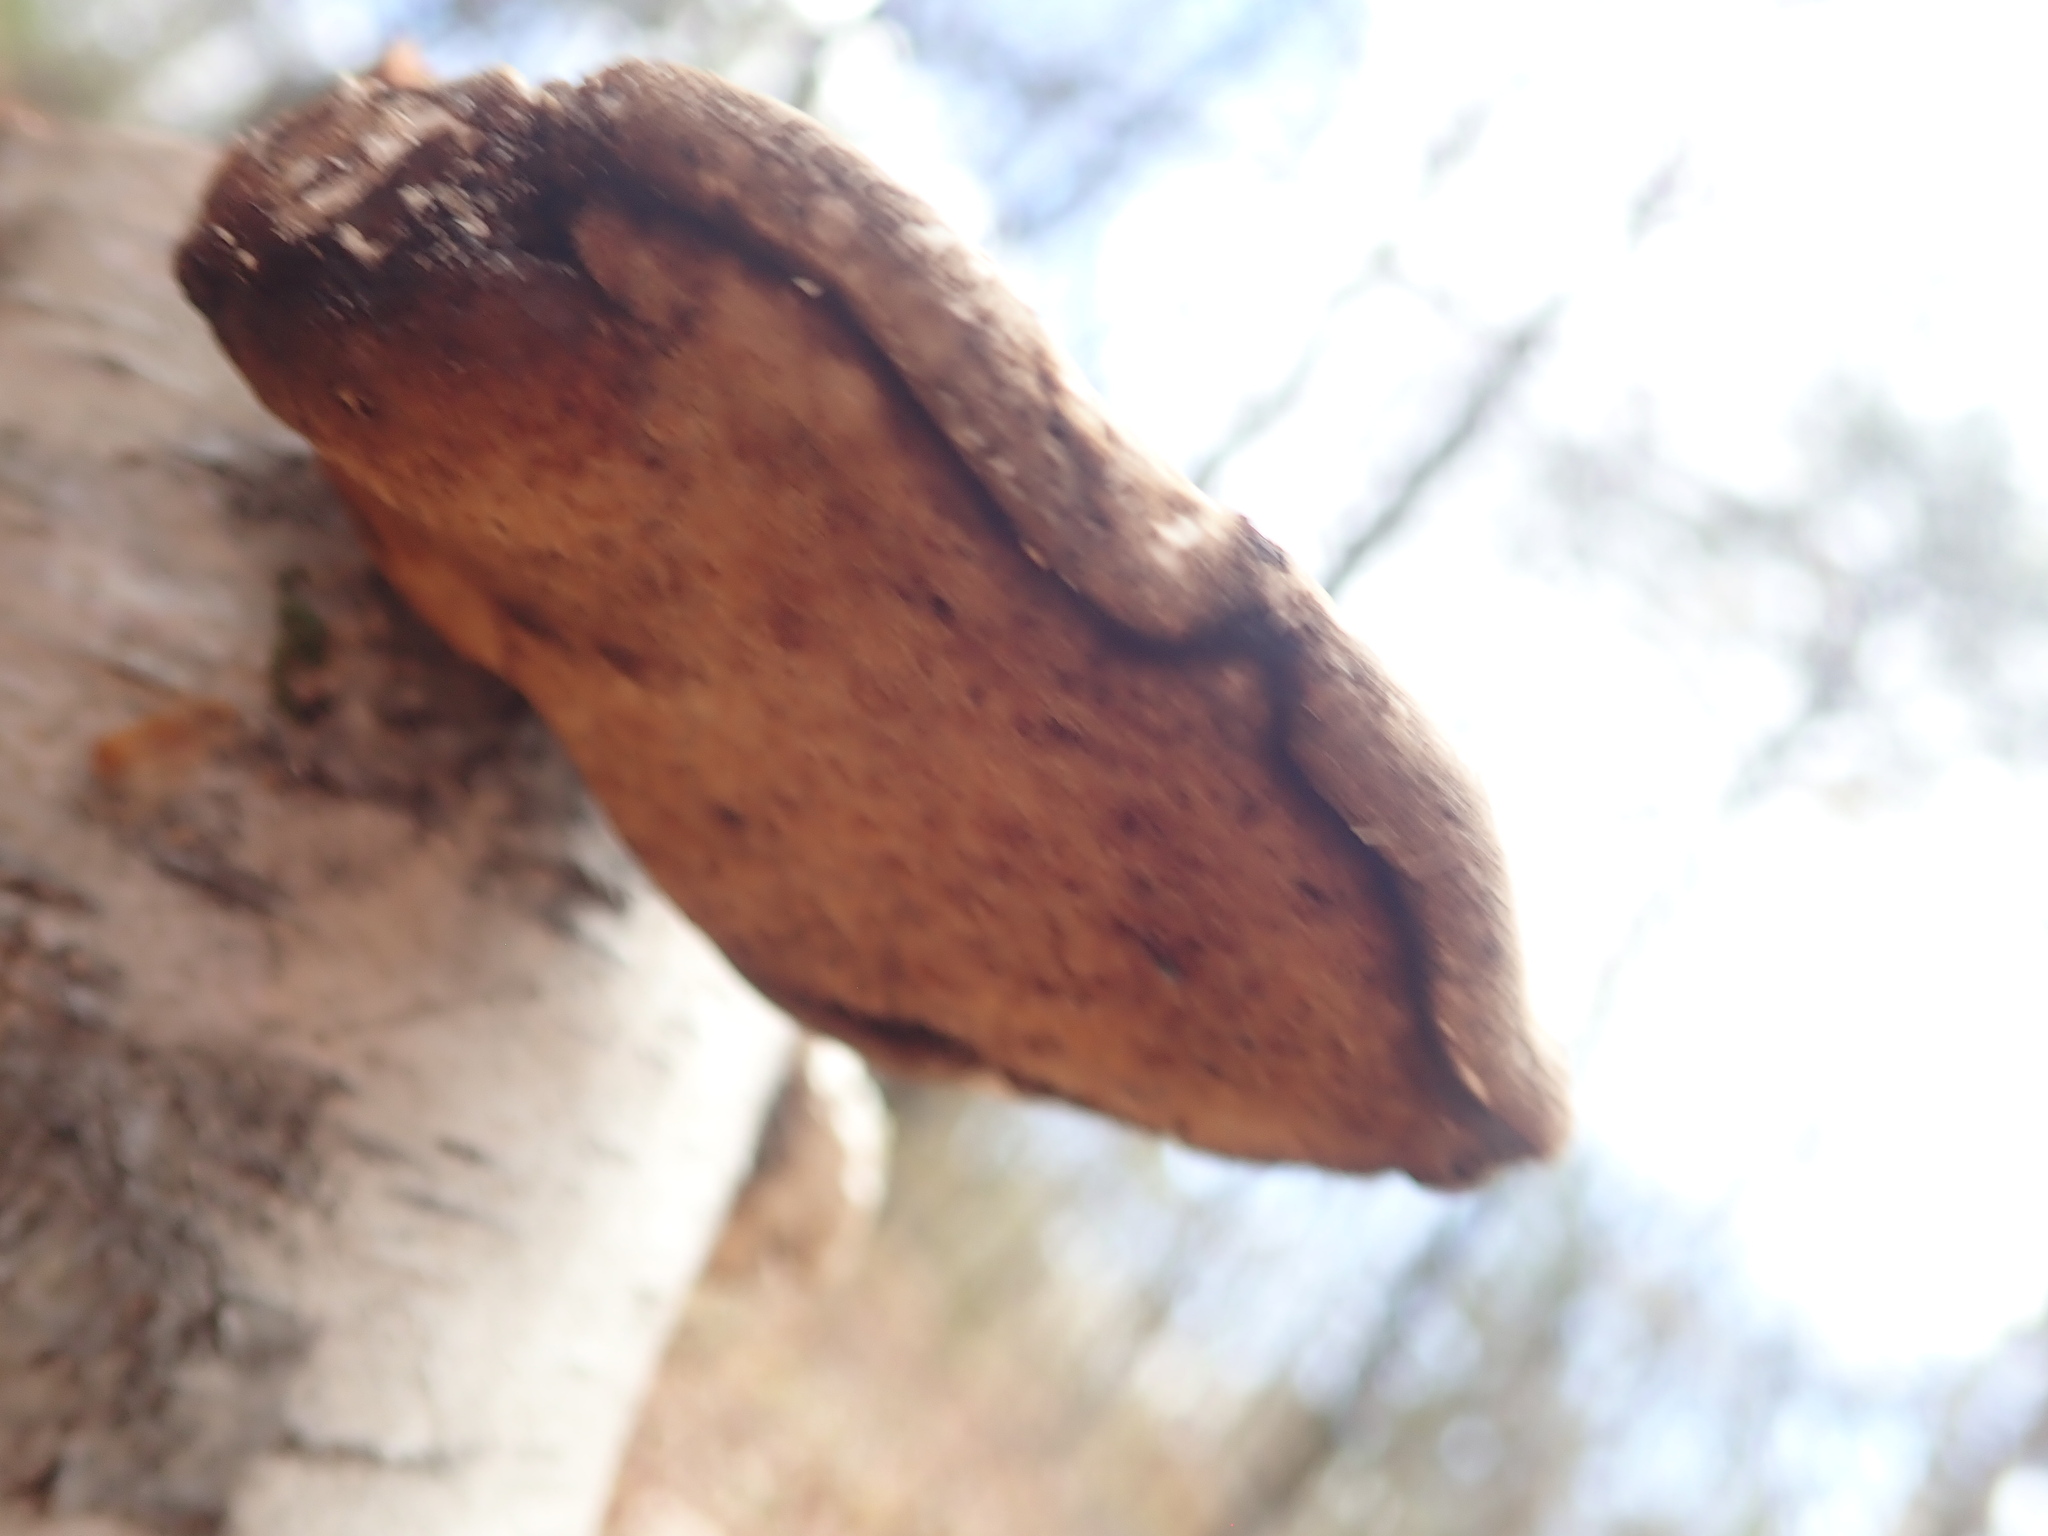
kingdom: Fungi
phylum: Basidiomycota
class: Agaricomycetes
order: Polyporales
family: Fomitopsidaceae
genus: Fomitopsis
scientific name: Fomitopsis betulina
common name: Birch polypore
